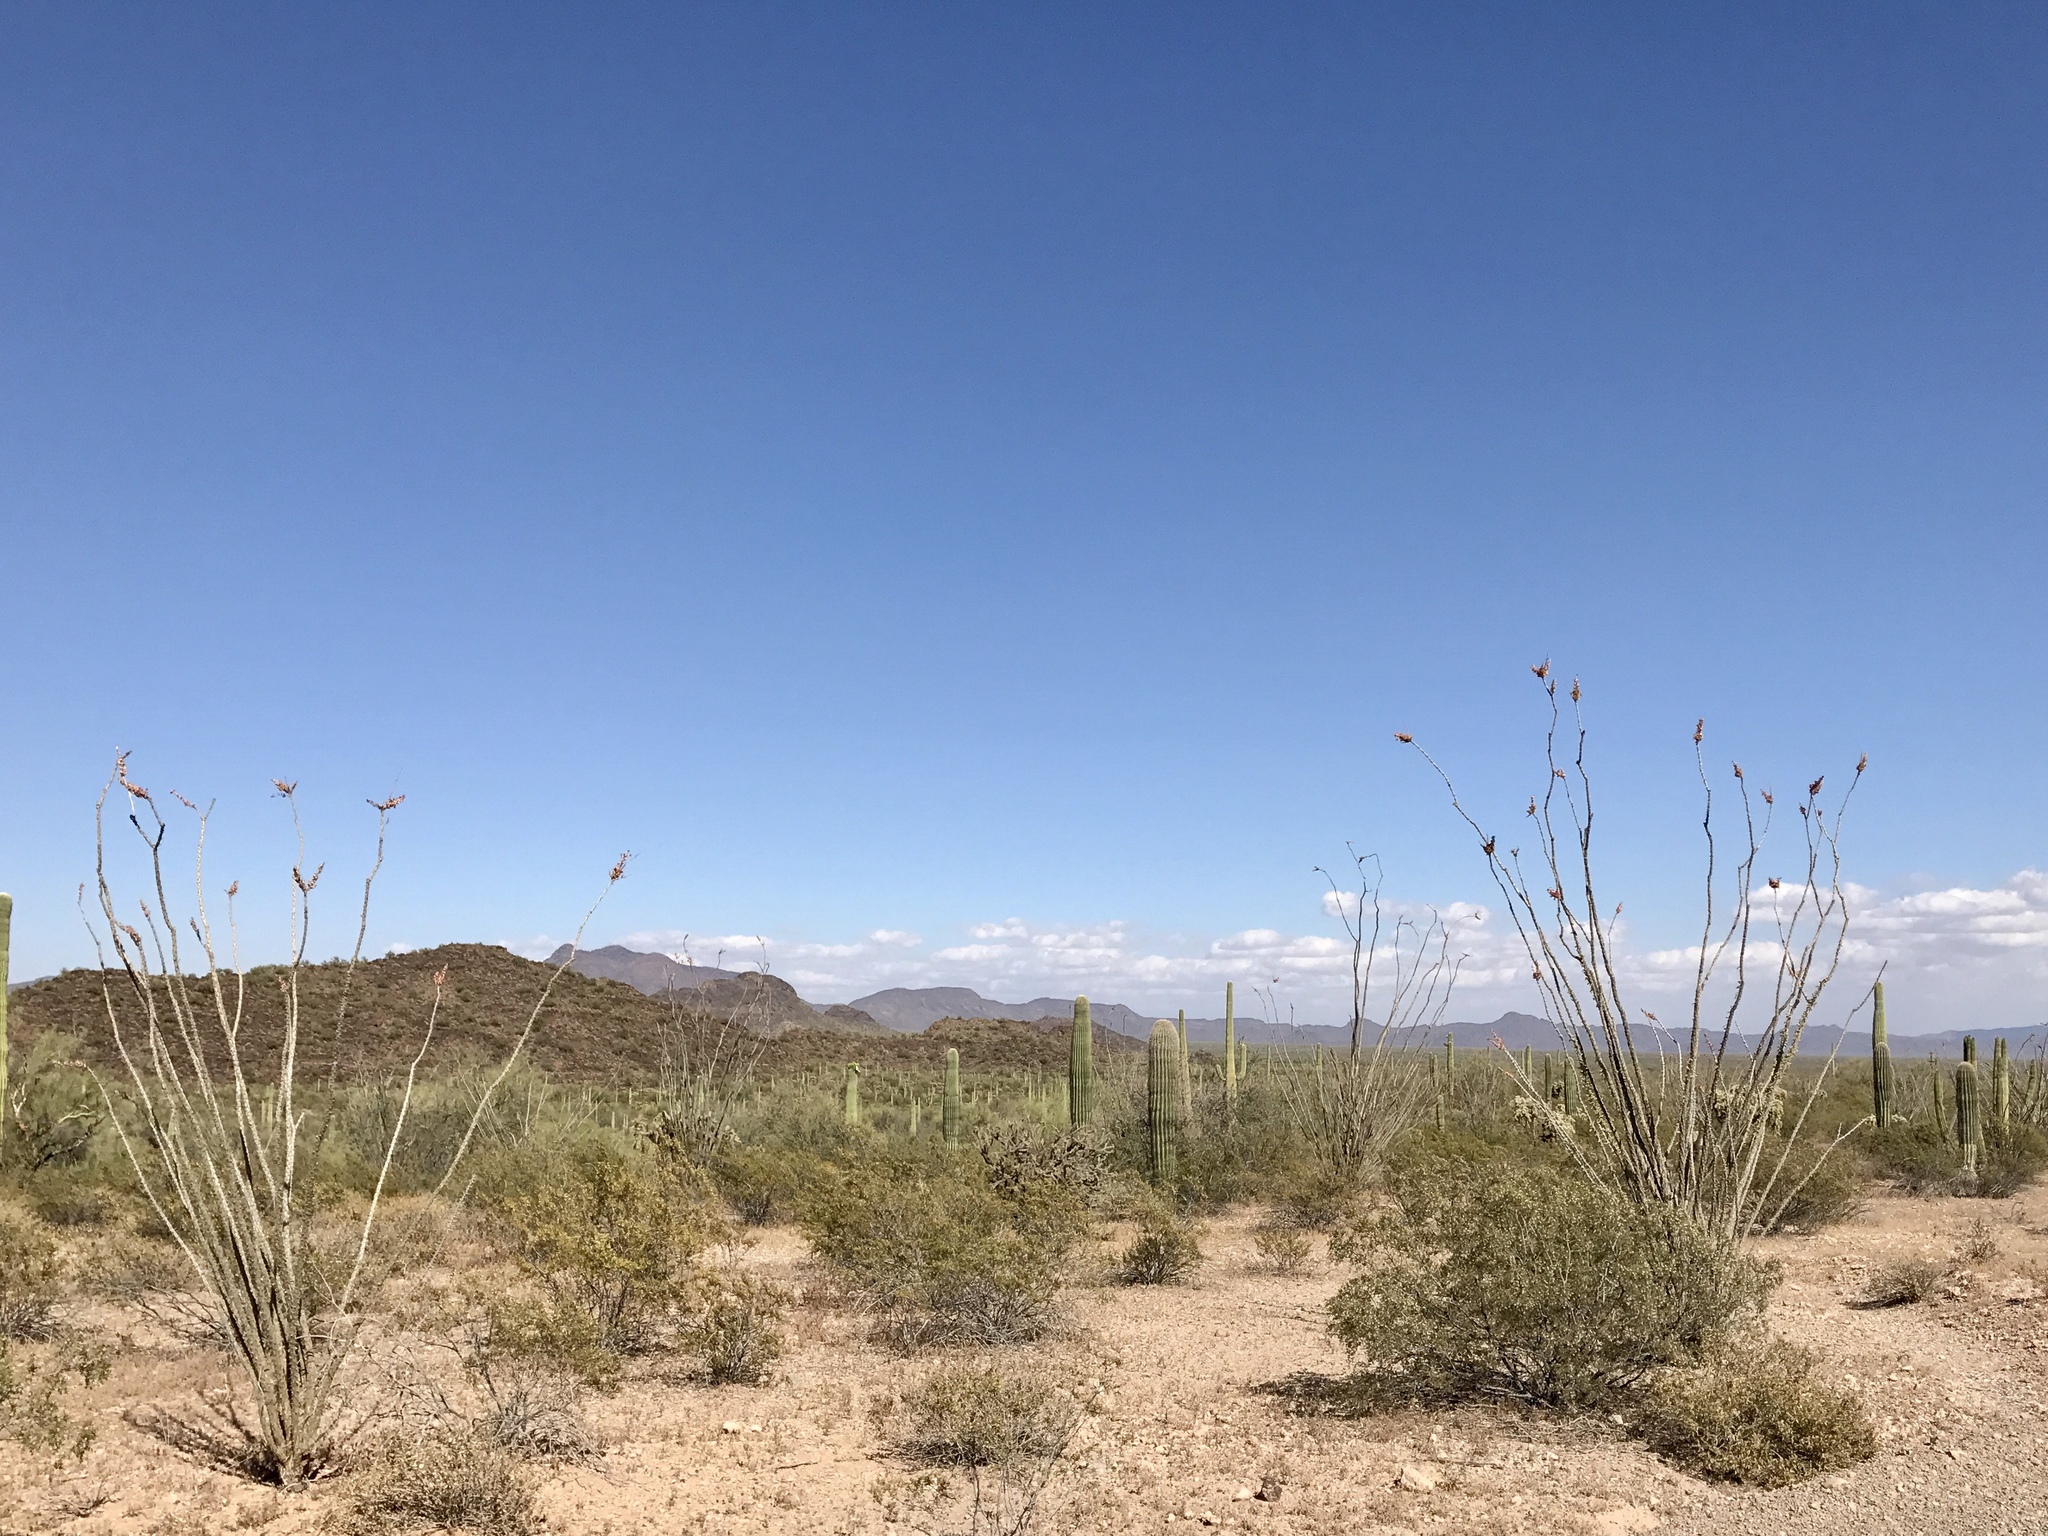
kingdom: Plantae
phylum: Tracheophyta
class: Magnoliopsida
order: Ericales
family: Fouquieriaceae
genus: Fouquieria
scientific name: Fouquieria splendens
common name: Vine-cactus
